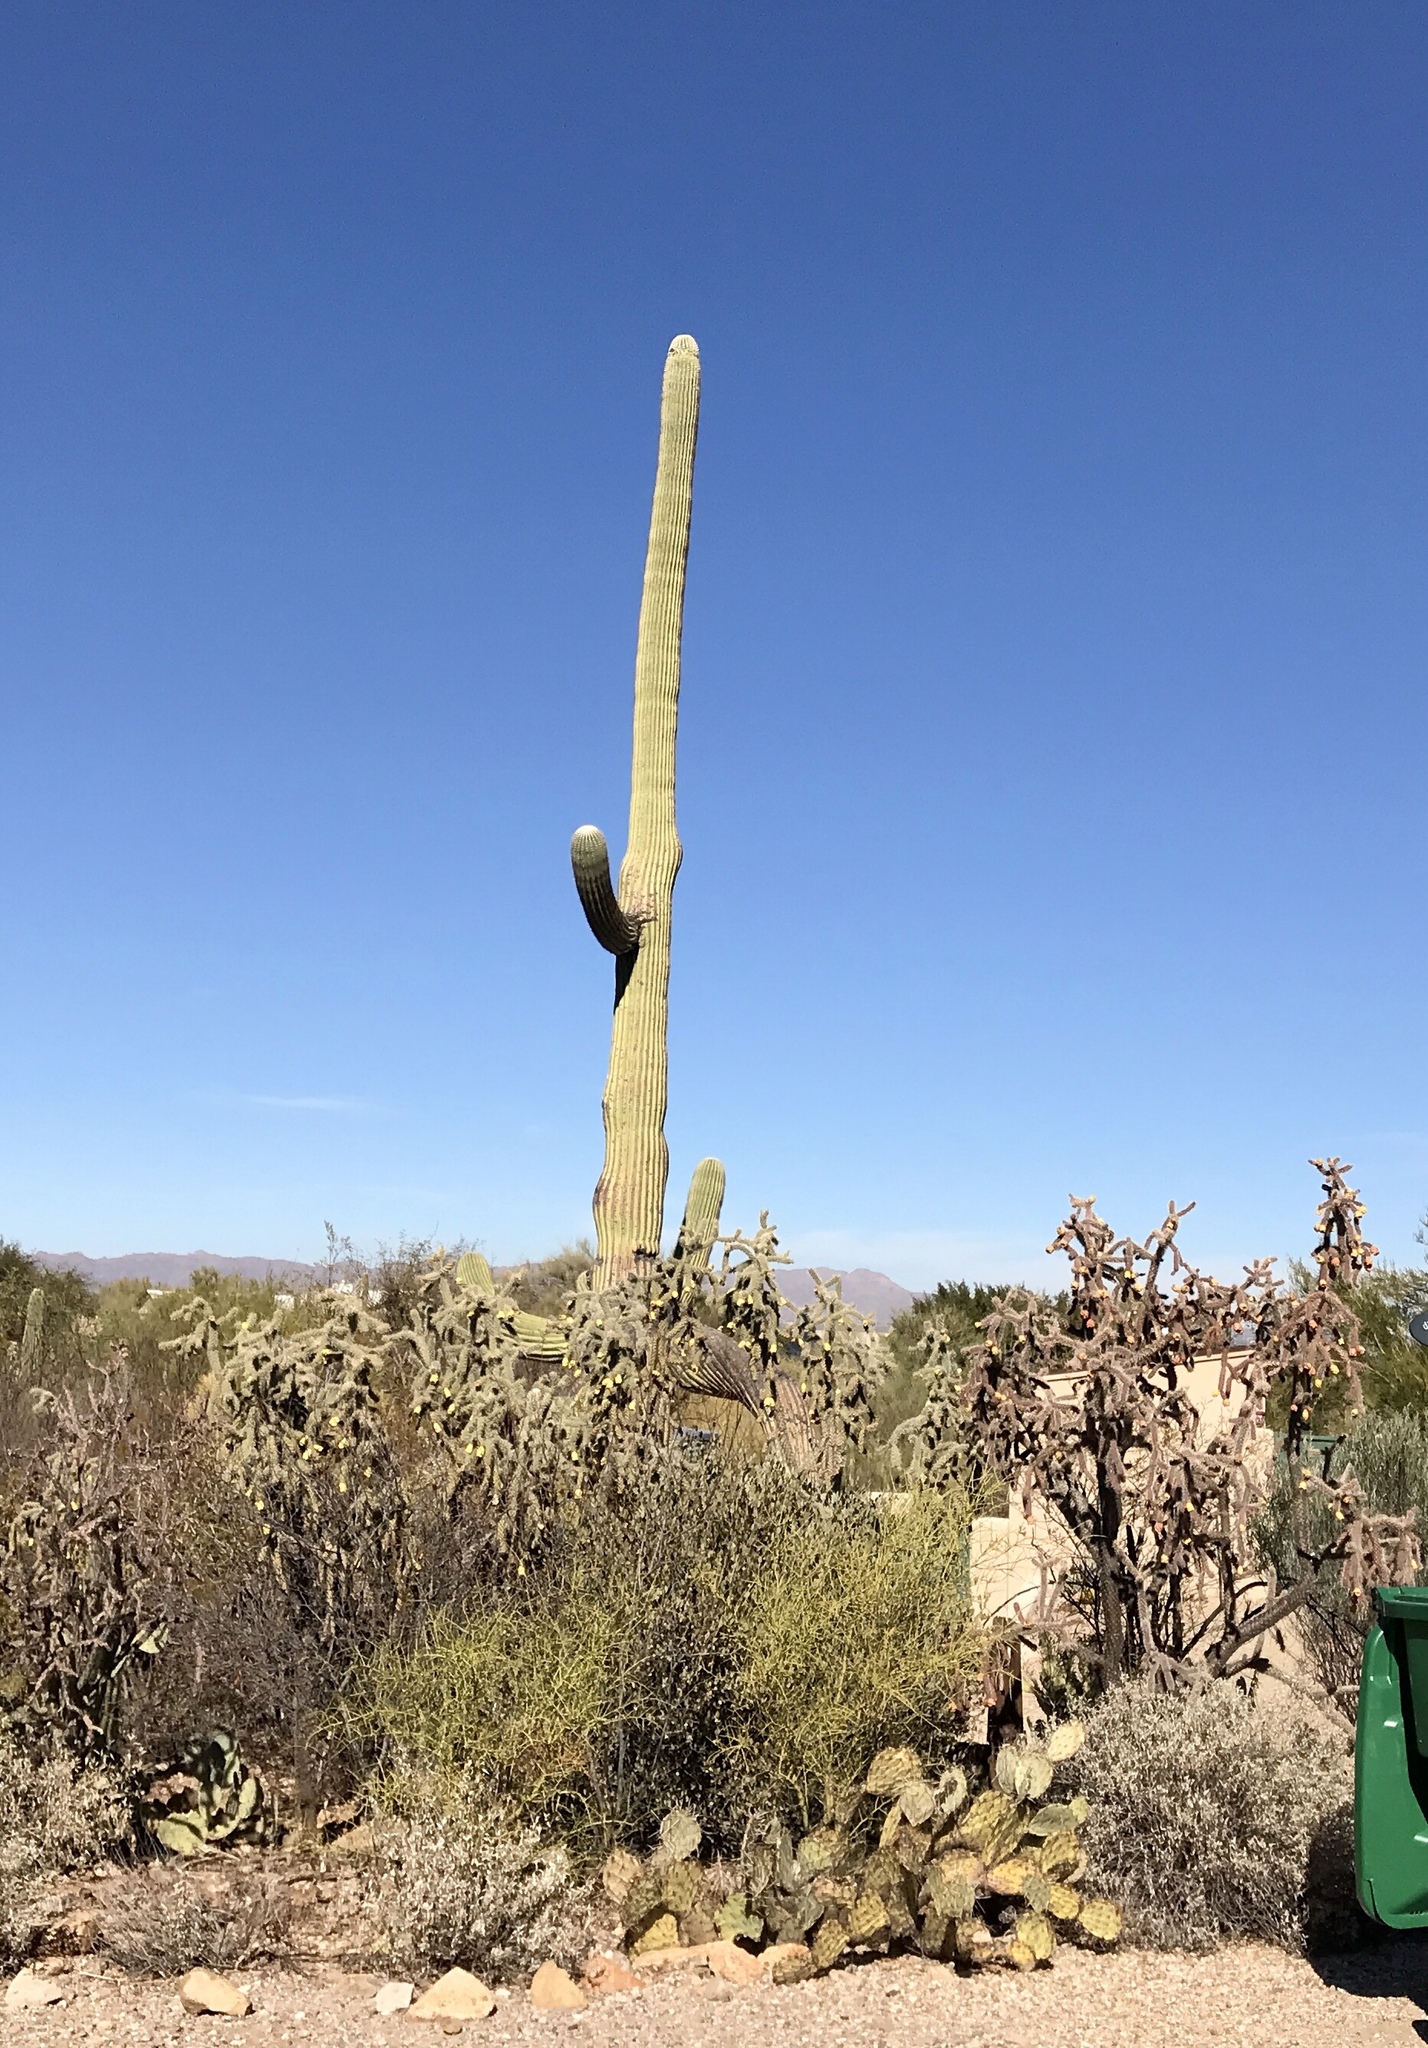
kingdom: Plantae
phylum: Tracheophyta
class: Magnoliopsida
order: Caryophyllales
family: Cactaceae
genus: Carnegiea
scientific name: Carnegiea gigantea
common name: Saguaro
